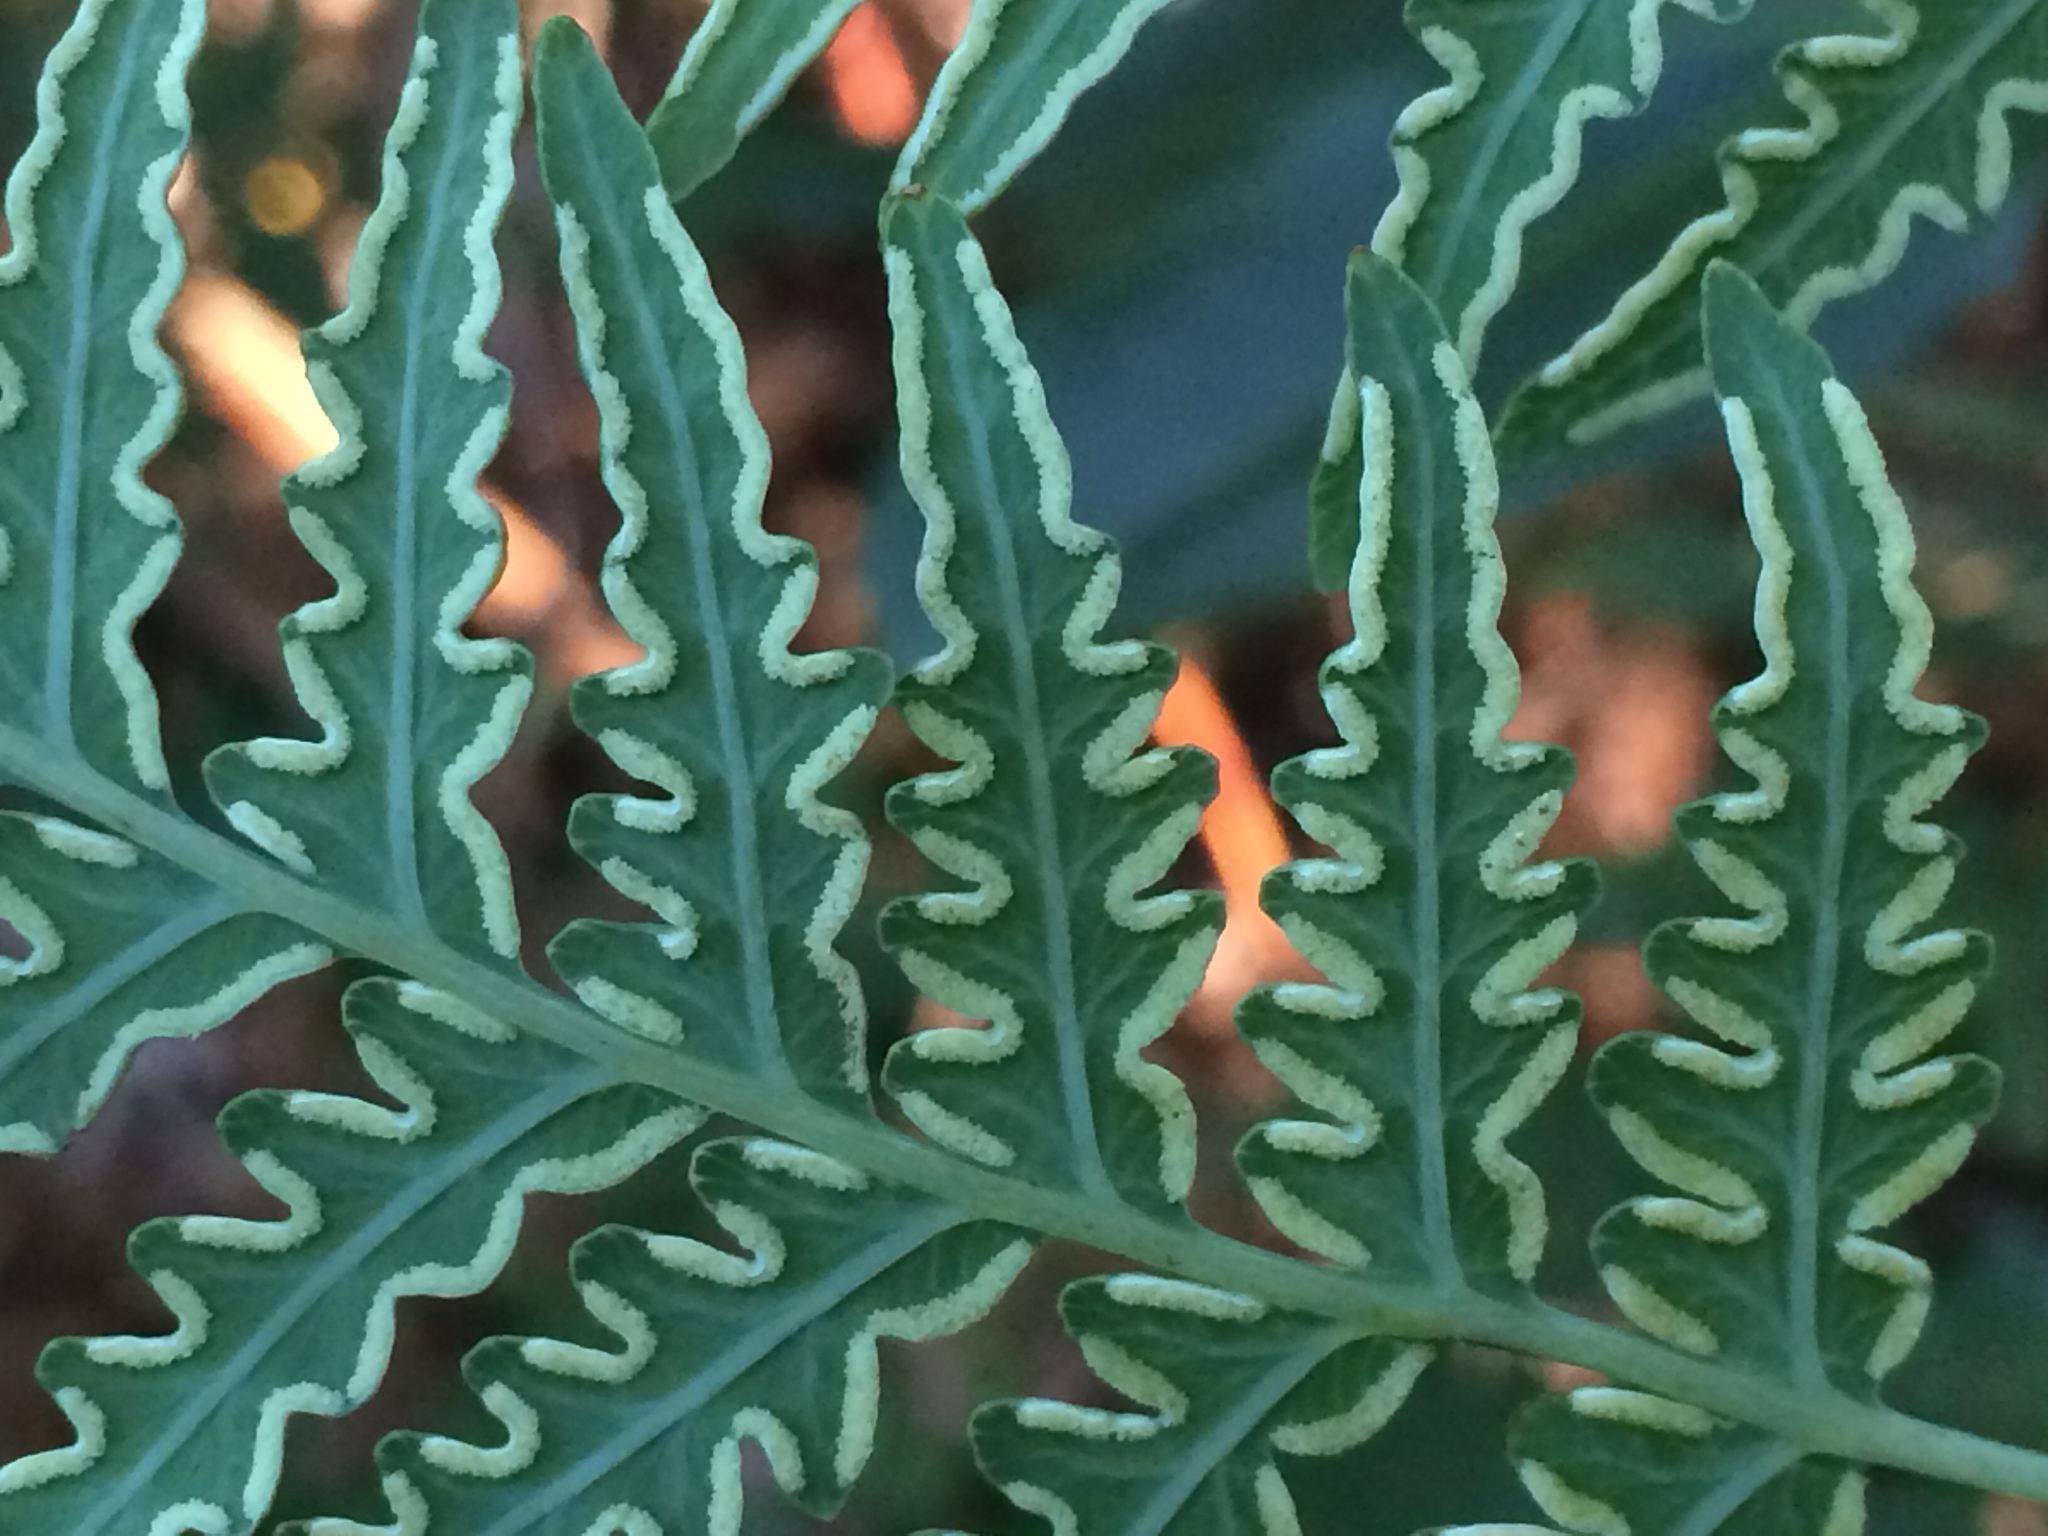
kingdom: Plantae
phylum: Tracheophyta
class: Polypodiopsida
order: Polypodiales
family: Dennstaedtiaceae
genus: Histiopteris
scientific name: Histiopteris incisa
